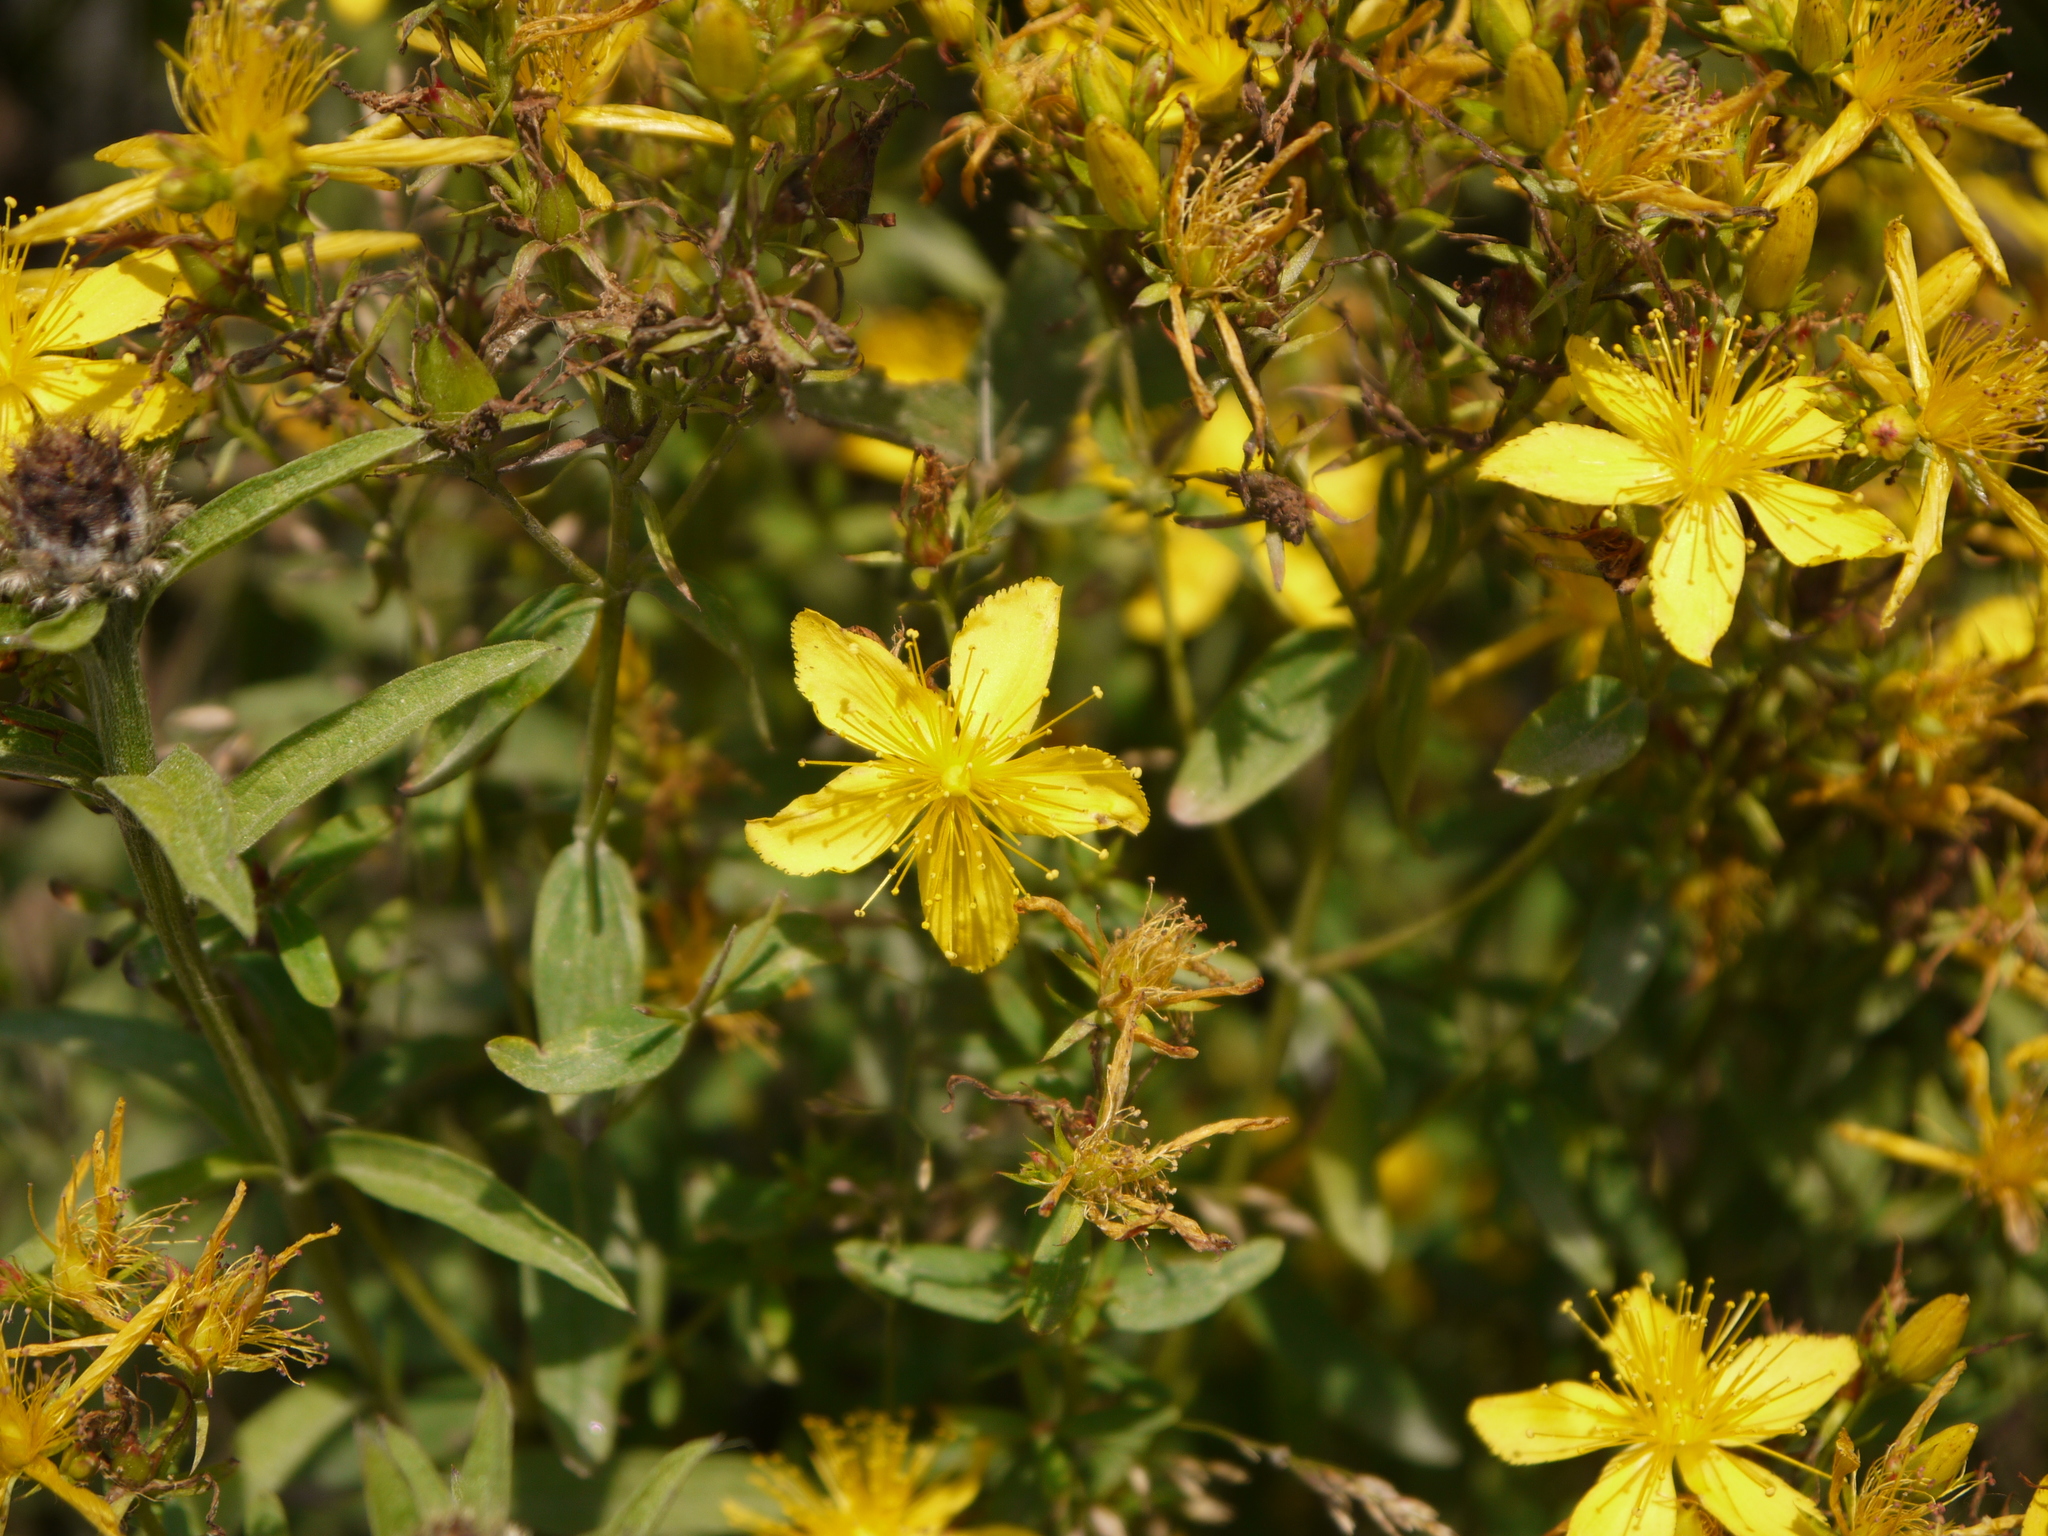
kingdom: Plantae
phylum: Tracheophyta
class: Magnoliopsida
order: Malpighiales
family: Hypericaceae
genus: Hypericum
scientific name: Hypericum perforatum
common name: Common st. johnswort
